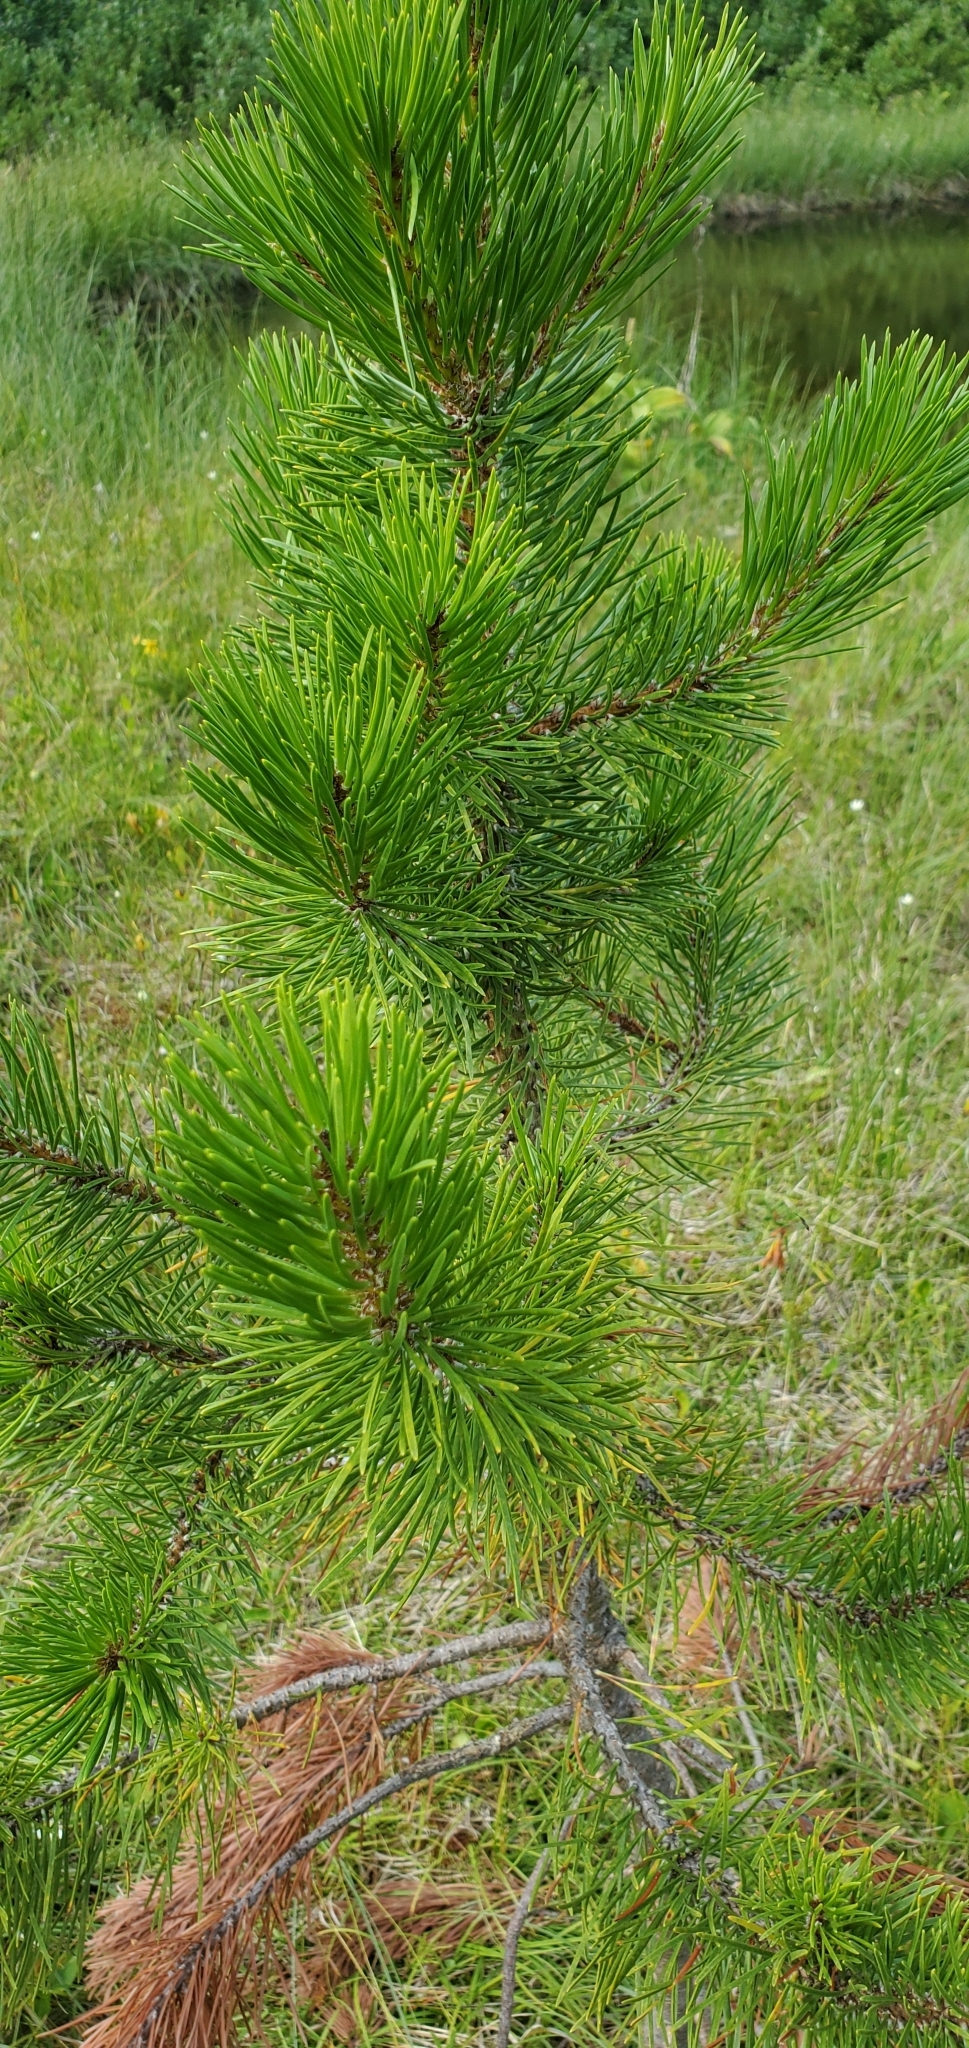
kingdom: Plantae
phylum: Tracheophyta
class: Pinopsida
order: Pinales
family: Pinaceae
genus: Pinus
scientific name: Pinus contorta
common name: Lodgepole pine
